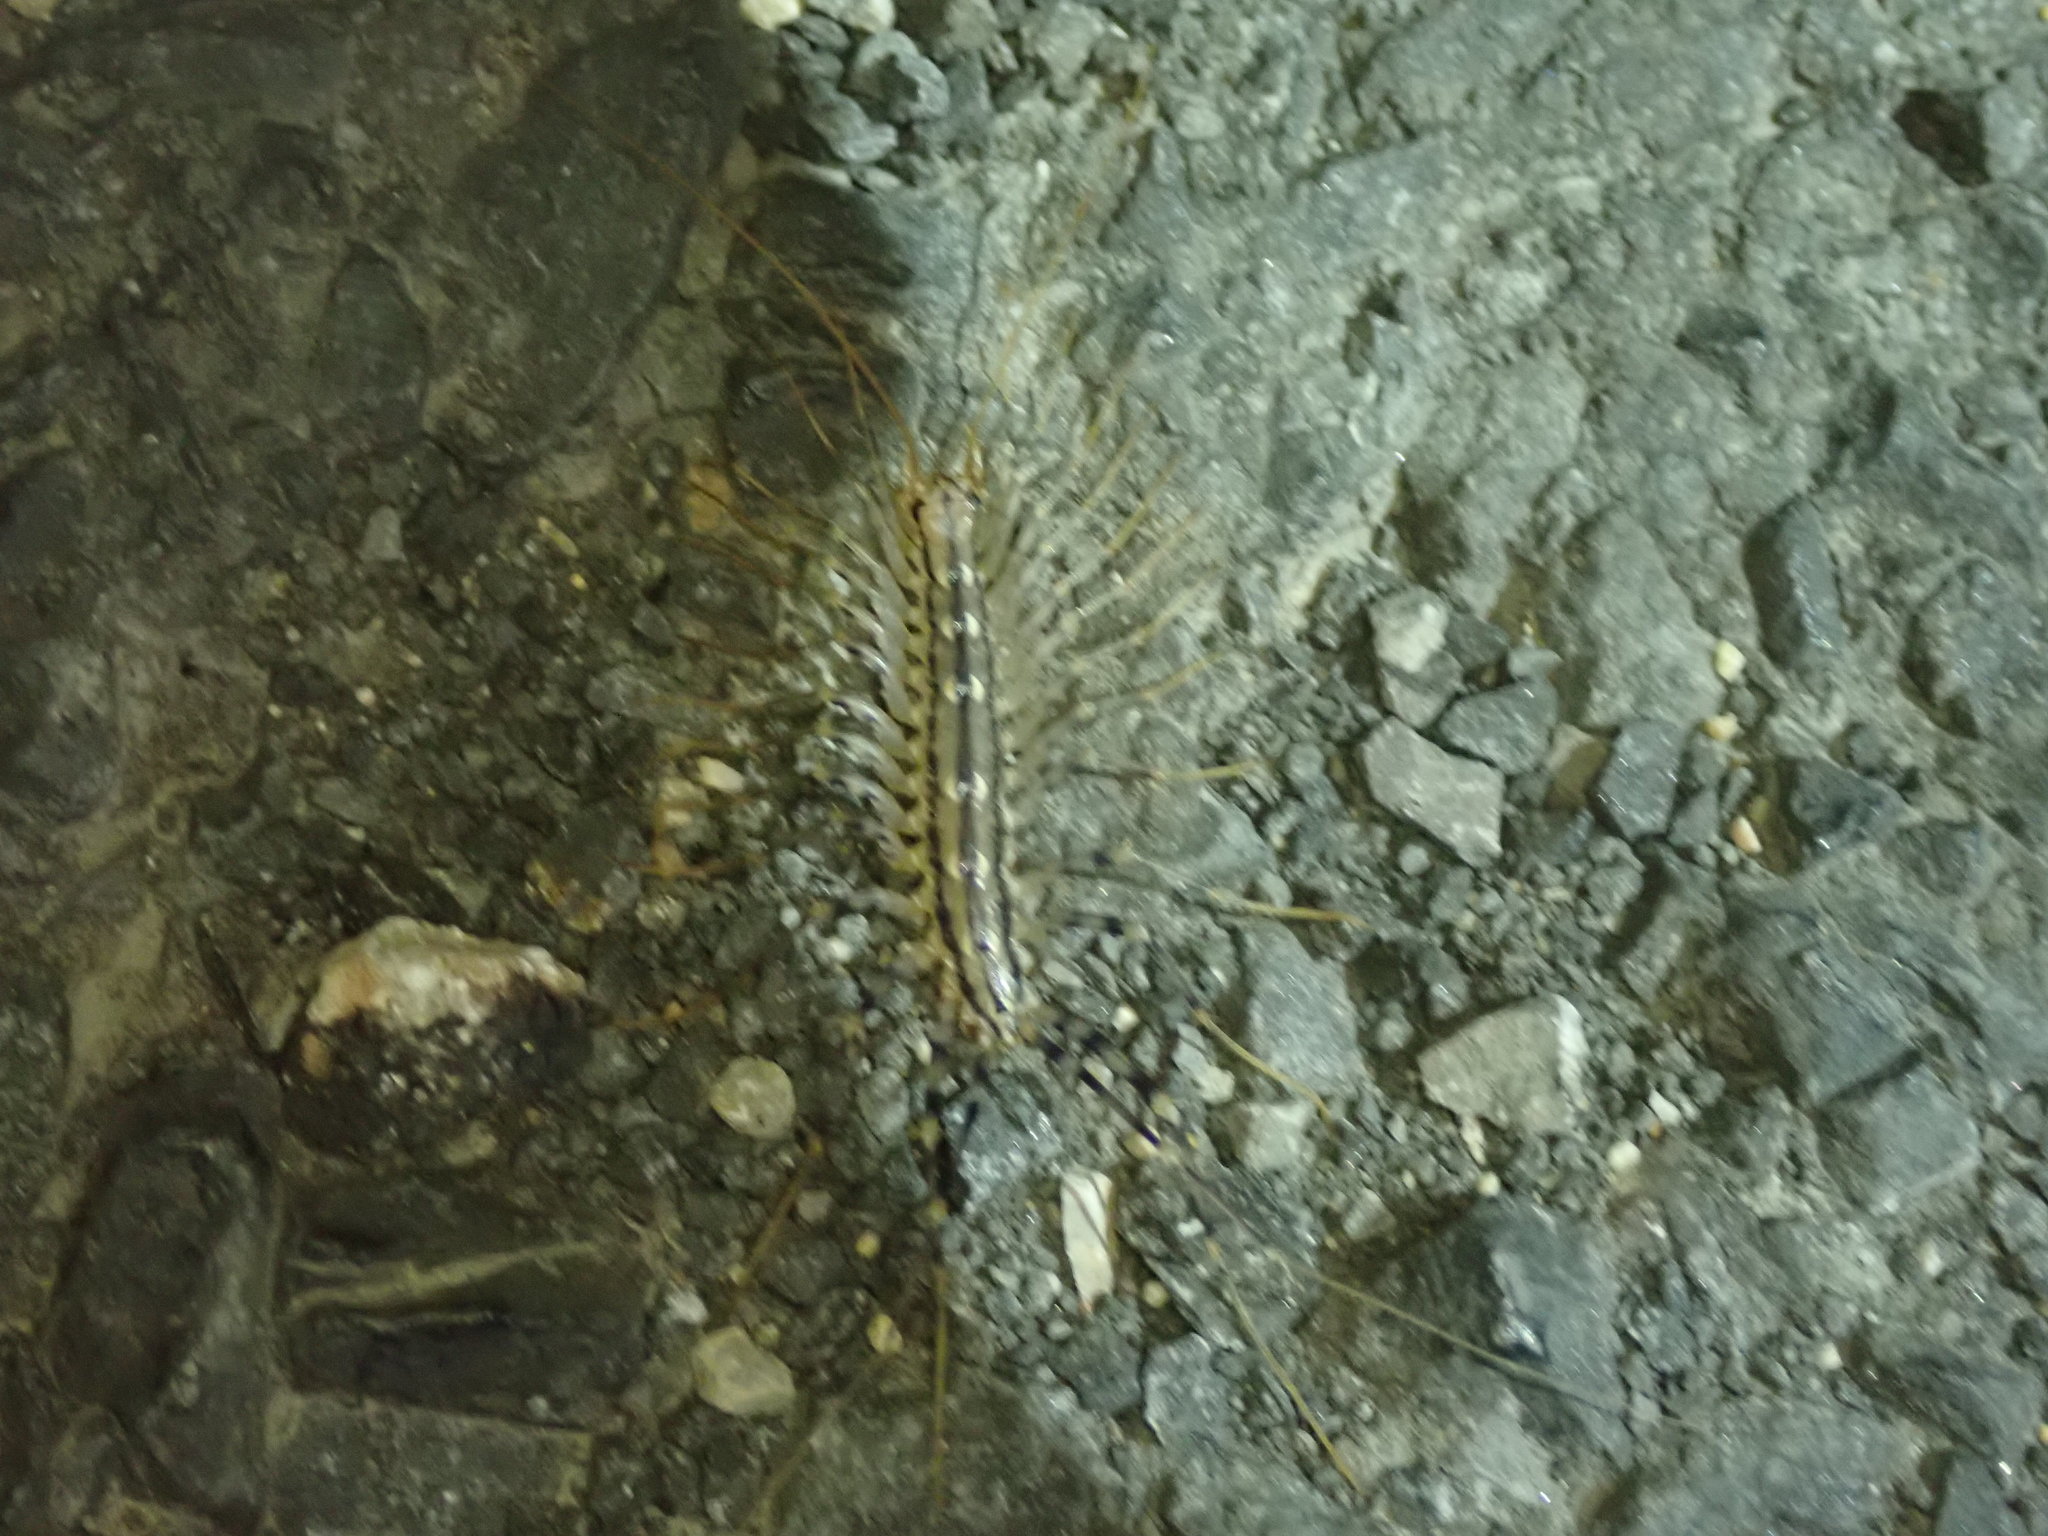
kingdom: Animalia
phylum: Arthropoda
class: Chilopoda
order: Scutigeromorpha
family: Scutigeridae
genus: Scutigera
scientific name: Scutigera coleoptrata
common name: House centipede
